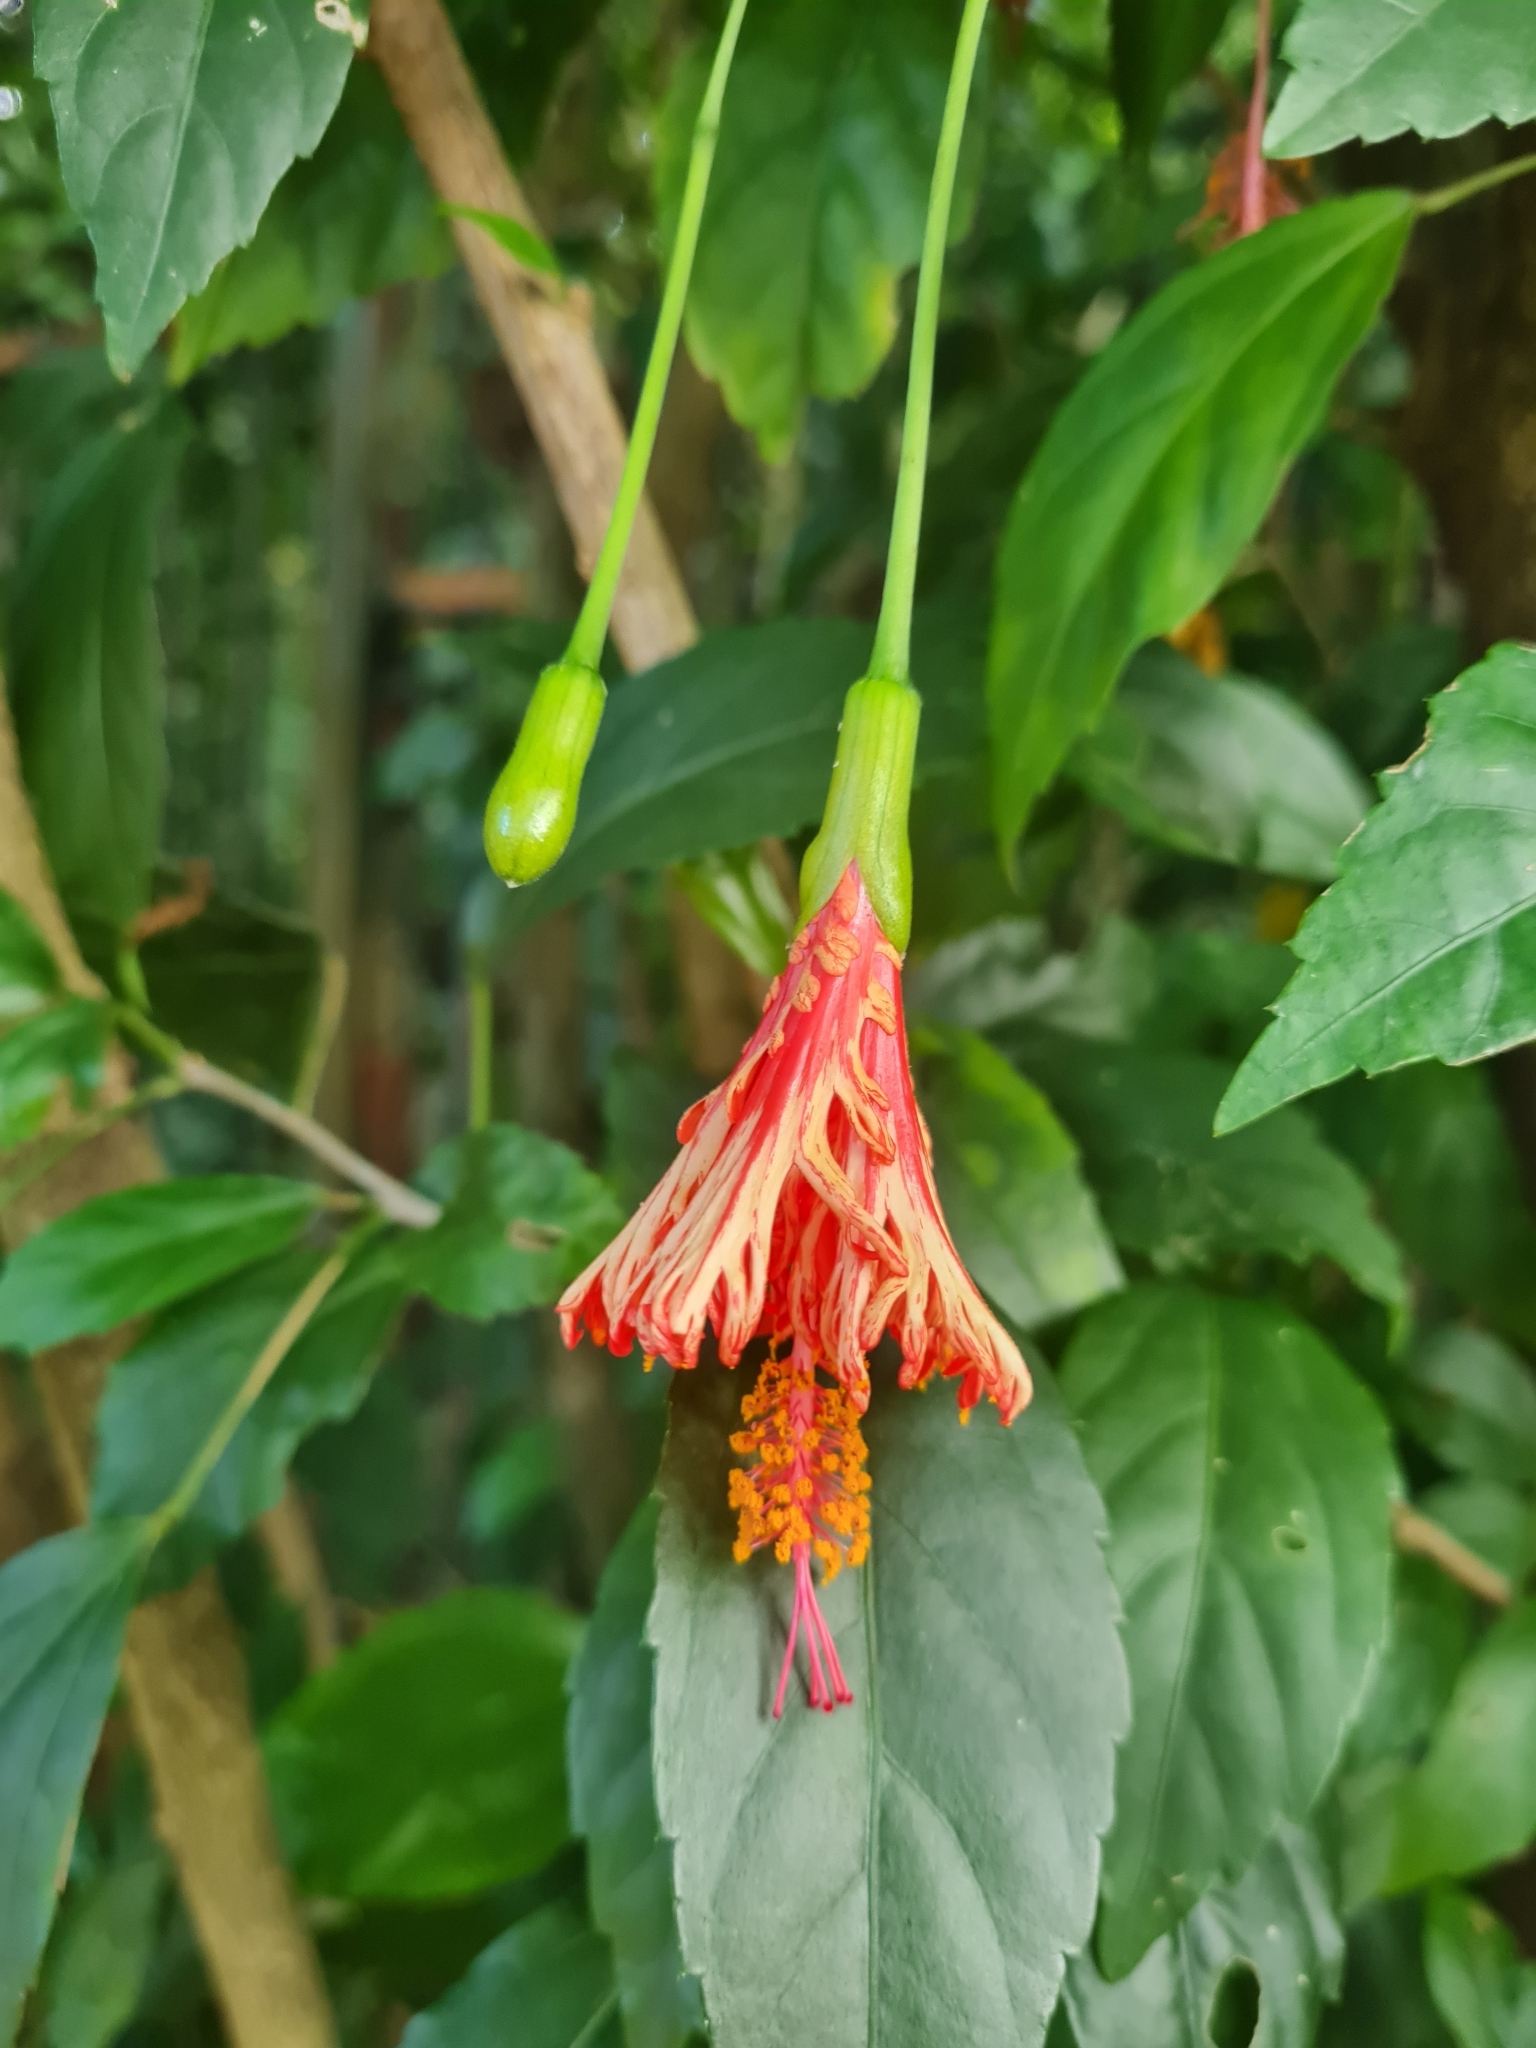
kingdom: Plantae
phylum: Tracheophyta
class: Magnoliopsida
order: Malvales
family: Malvaceae
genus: Hibiscus
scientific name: Hibiscus schizopetalus
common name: Fringed rosemallow
